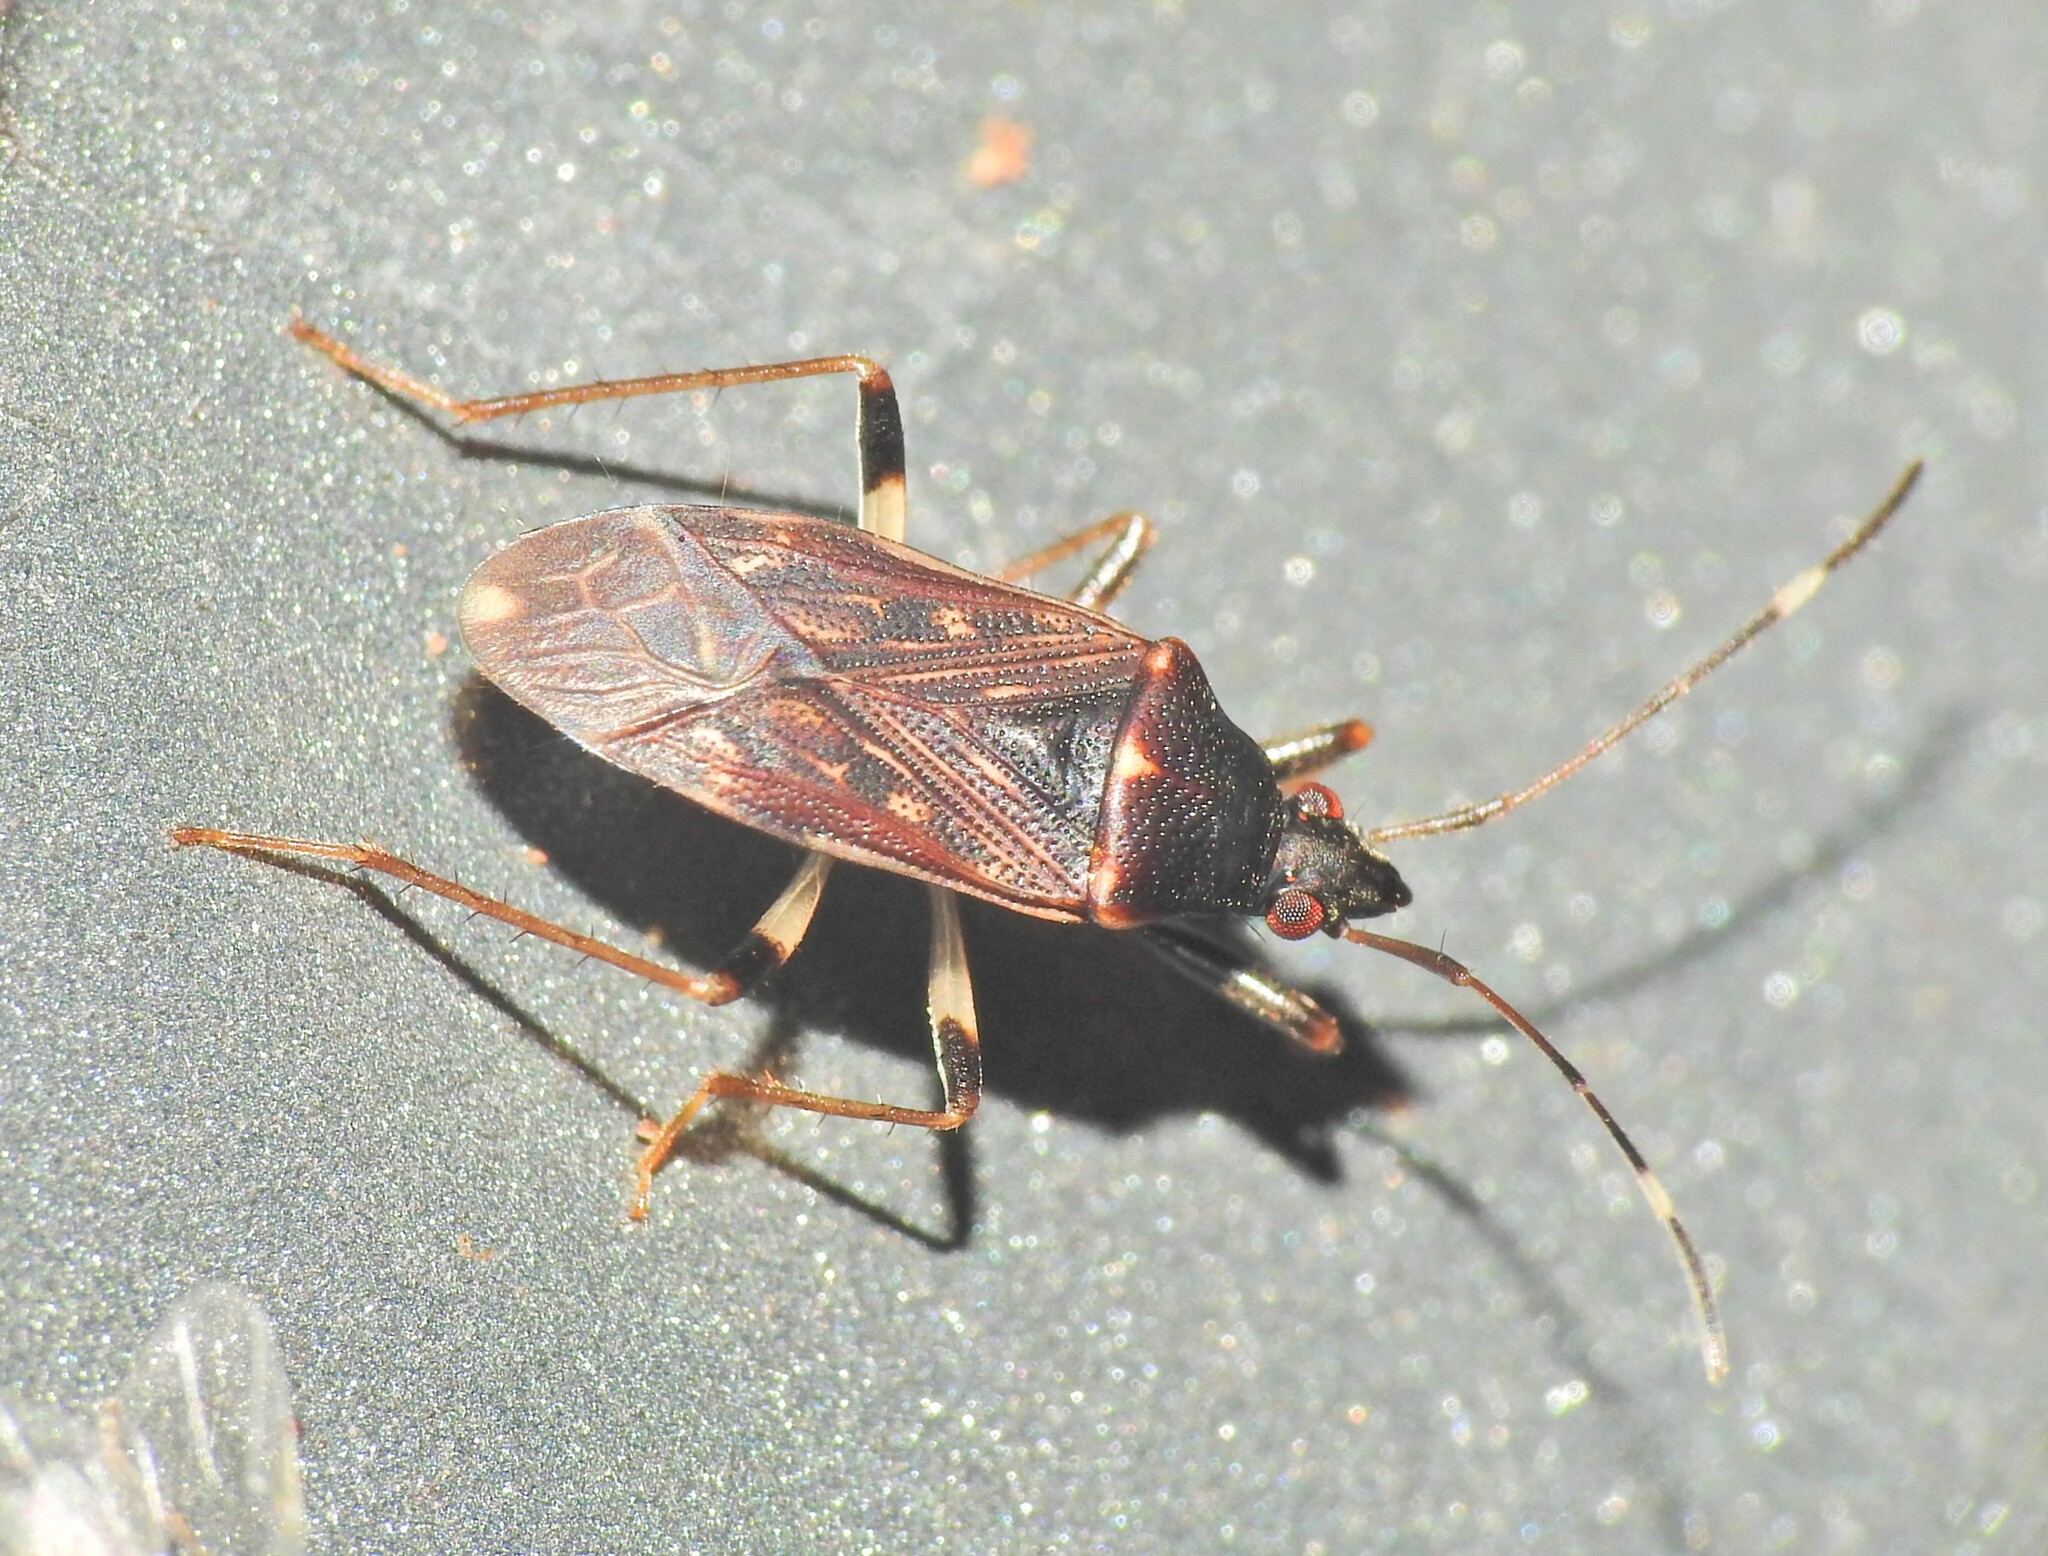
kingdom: Animalia
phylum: Arthropoda
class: Insecta
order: Hemiptera
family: Rhyparochromidae
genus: Aristaenetus
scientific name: Aristaenetus similis
